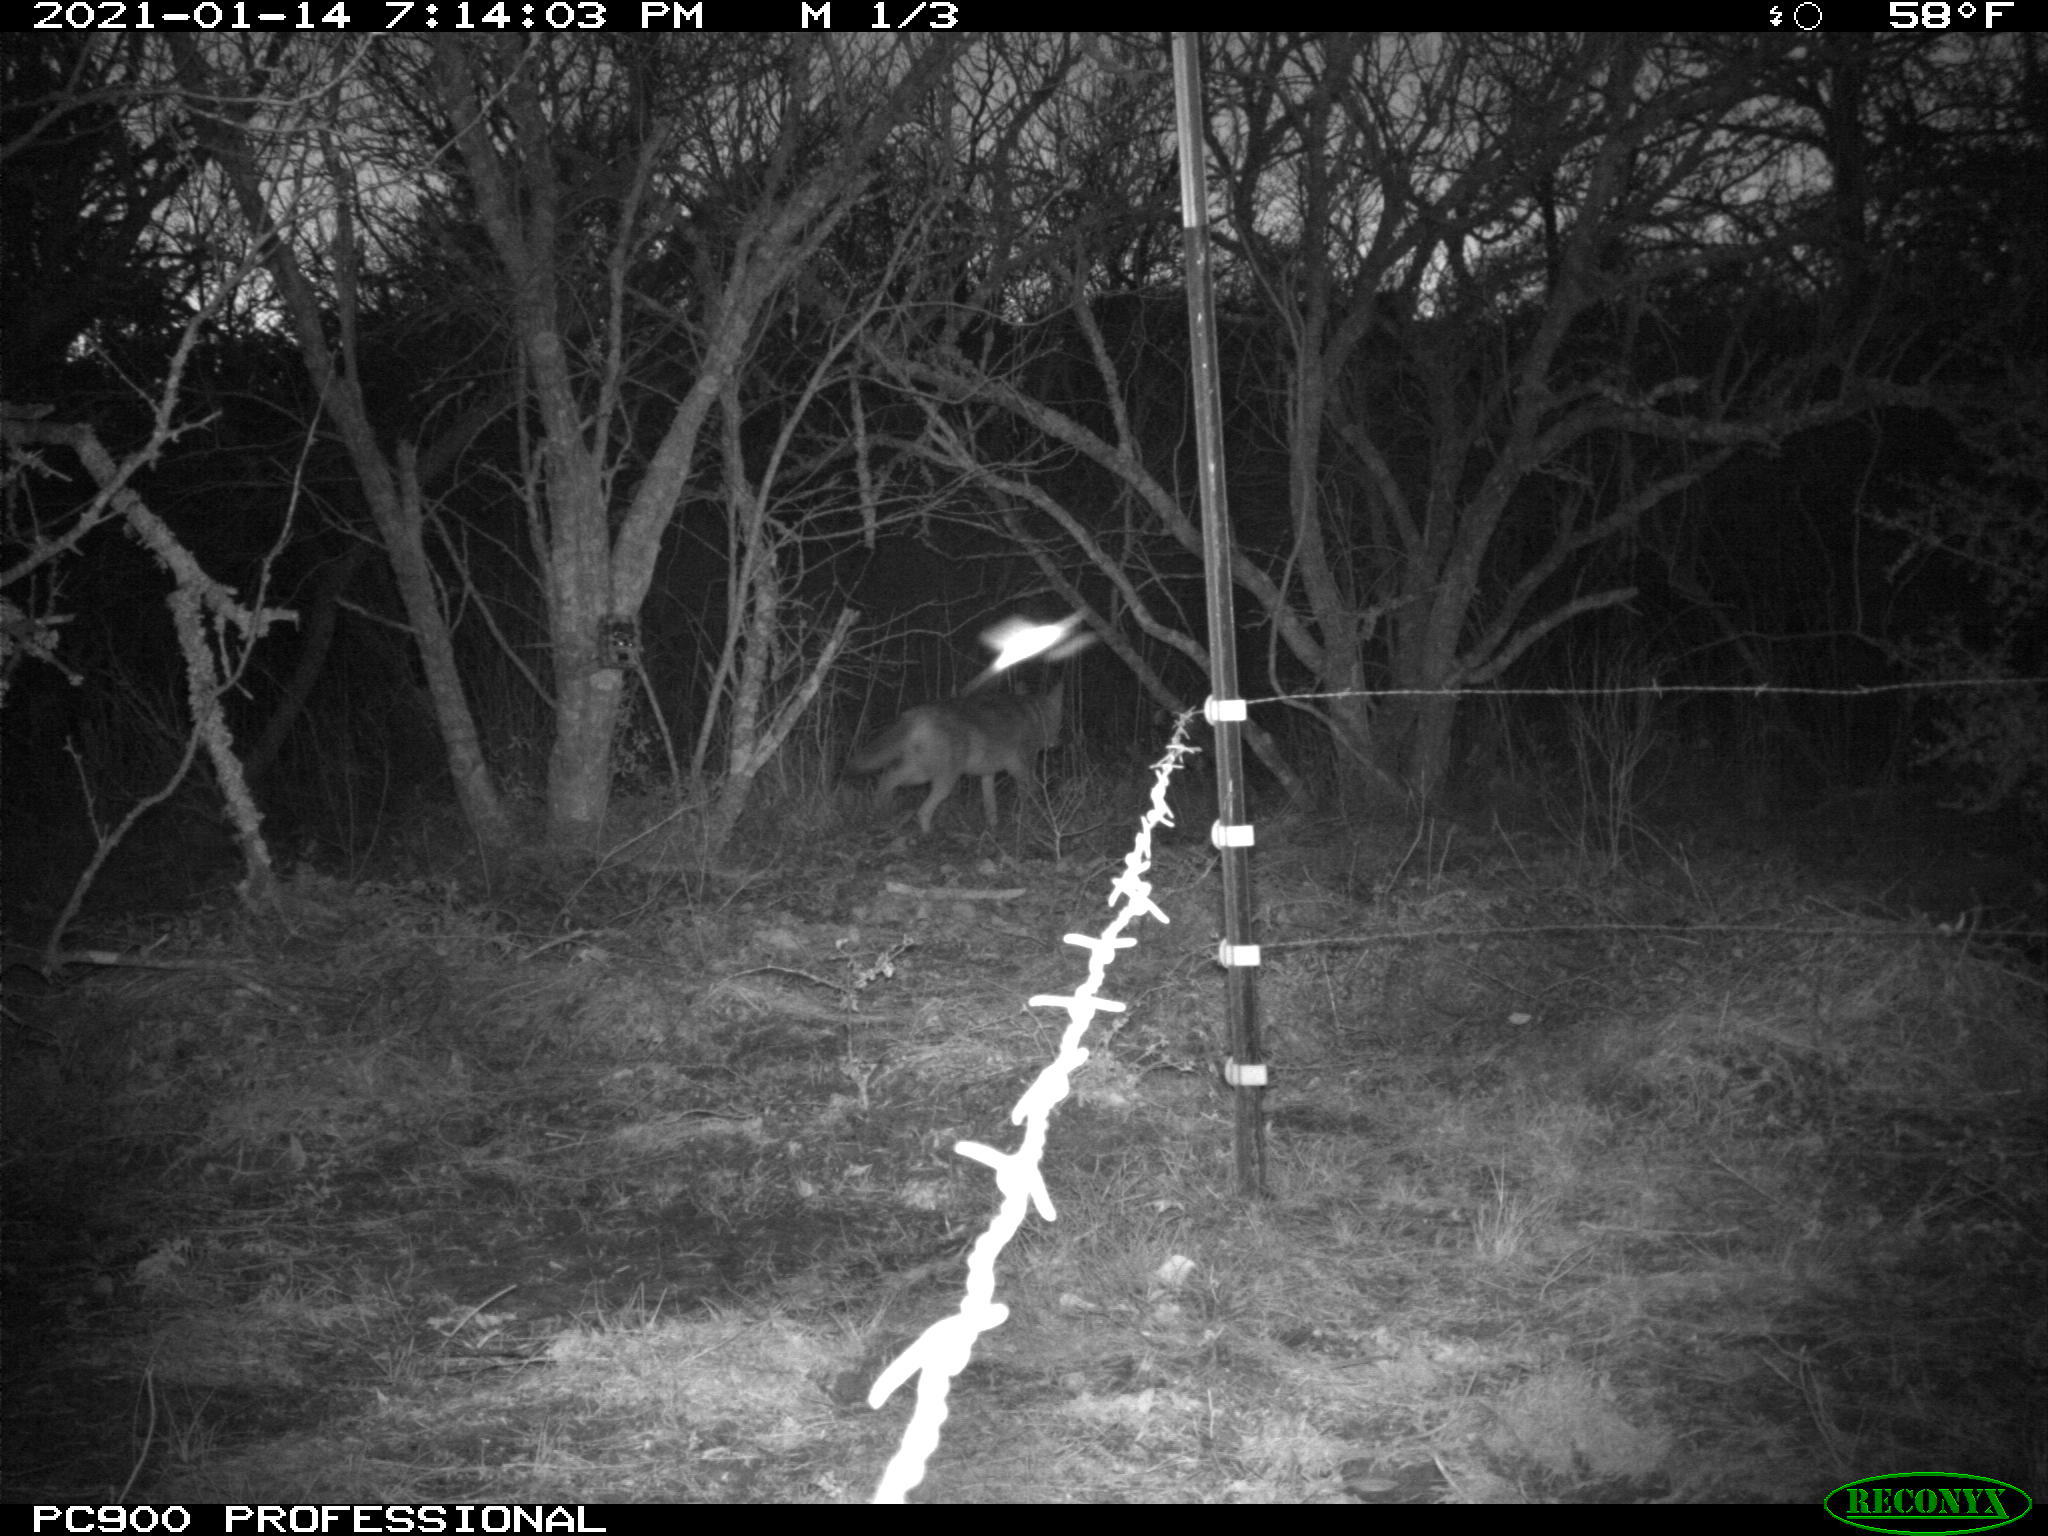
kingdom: Animalia
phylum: Chordata
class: Mammalia
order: Carnivora
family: Canidae
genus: Canis
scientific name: Canis latrans
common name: Coyote
